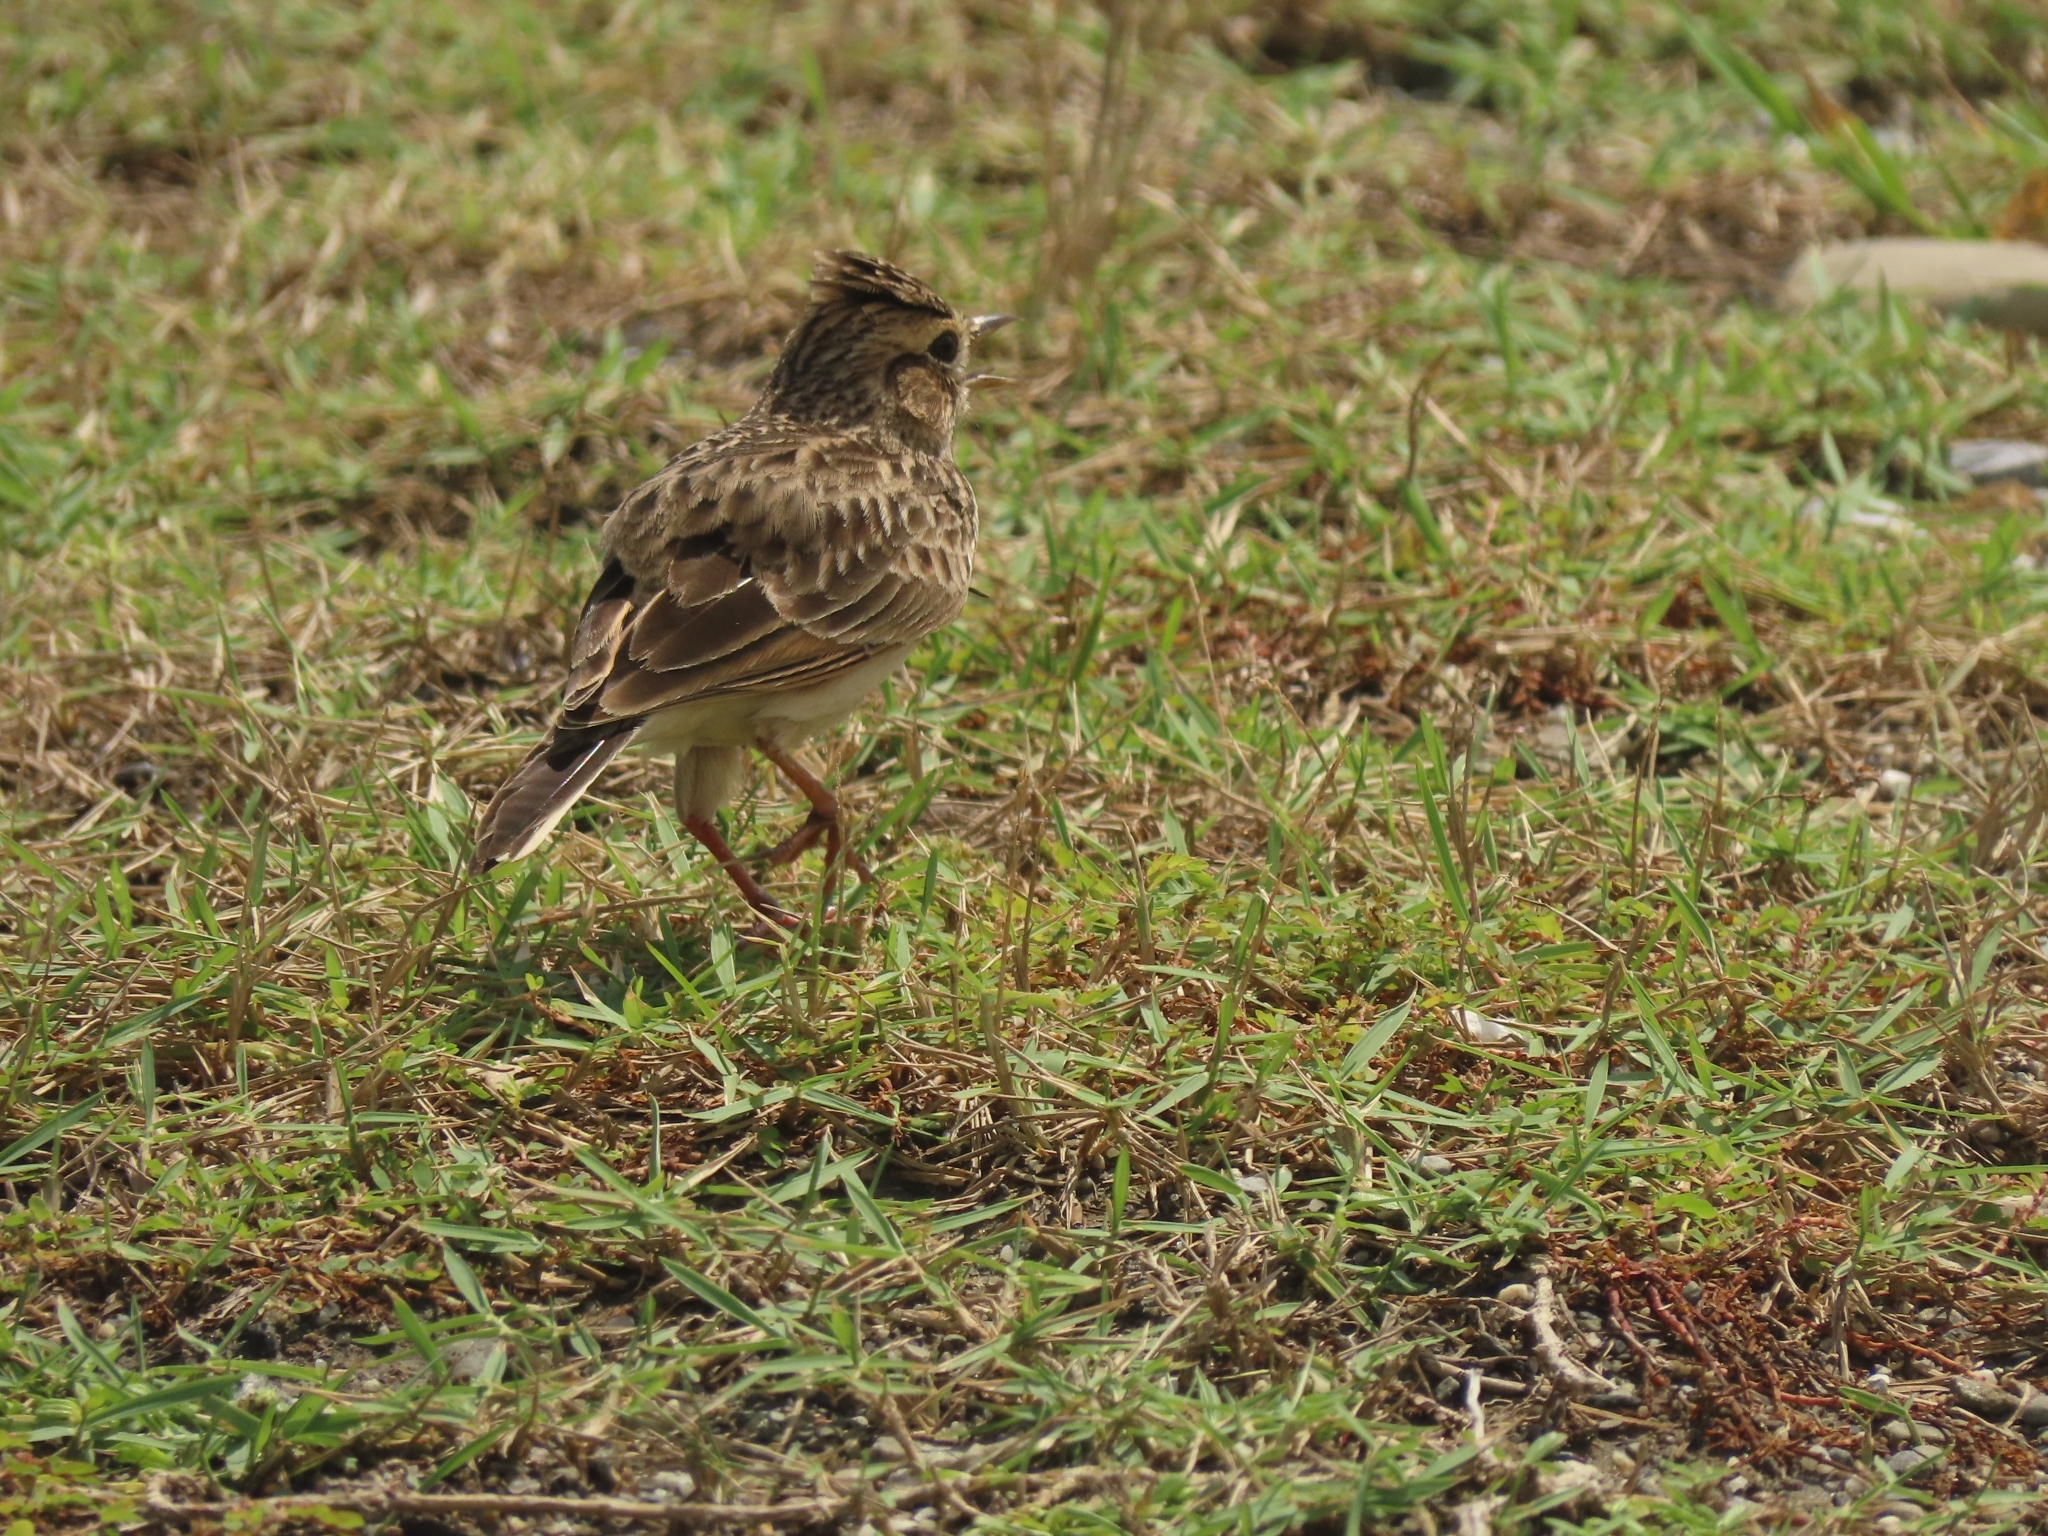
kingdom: Animalia
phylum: Chordata
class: Aves
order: Passeriformes
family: Alaudidae
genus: Alauda
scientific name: Alauda gulgula
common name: Oriental skylark
